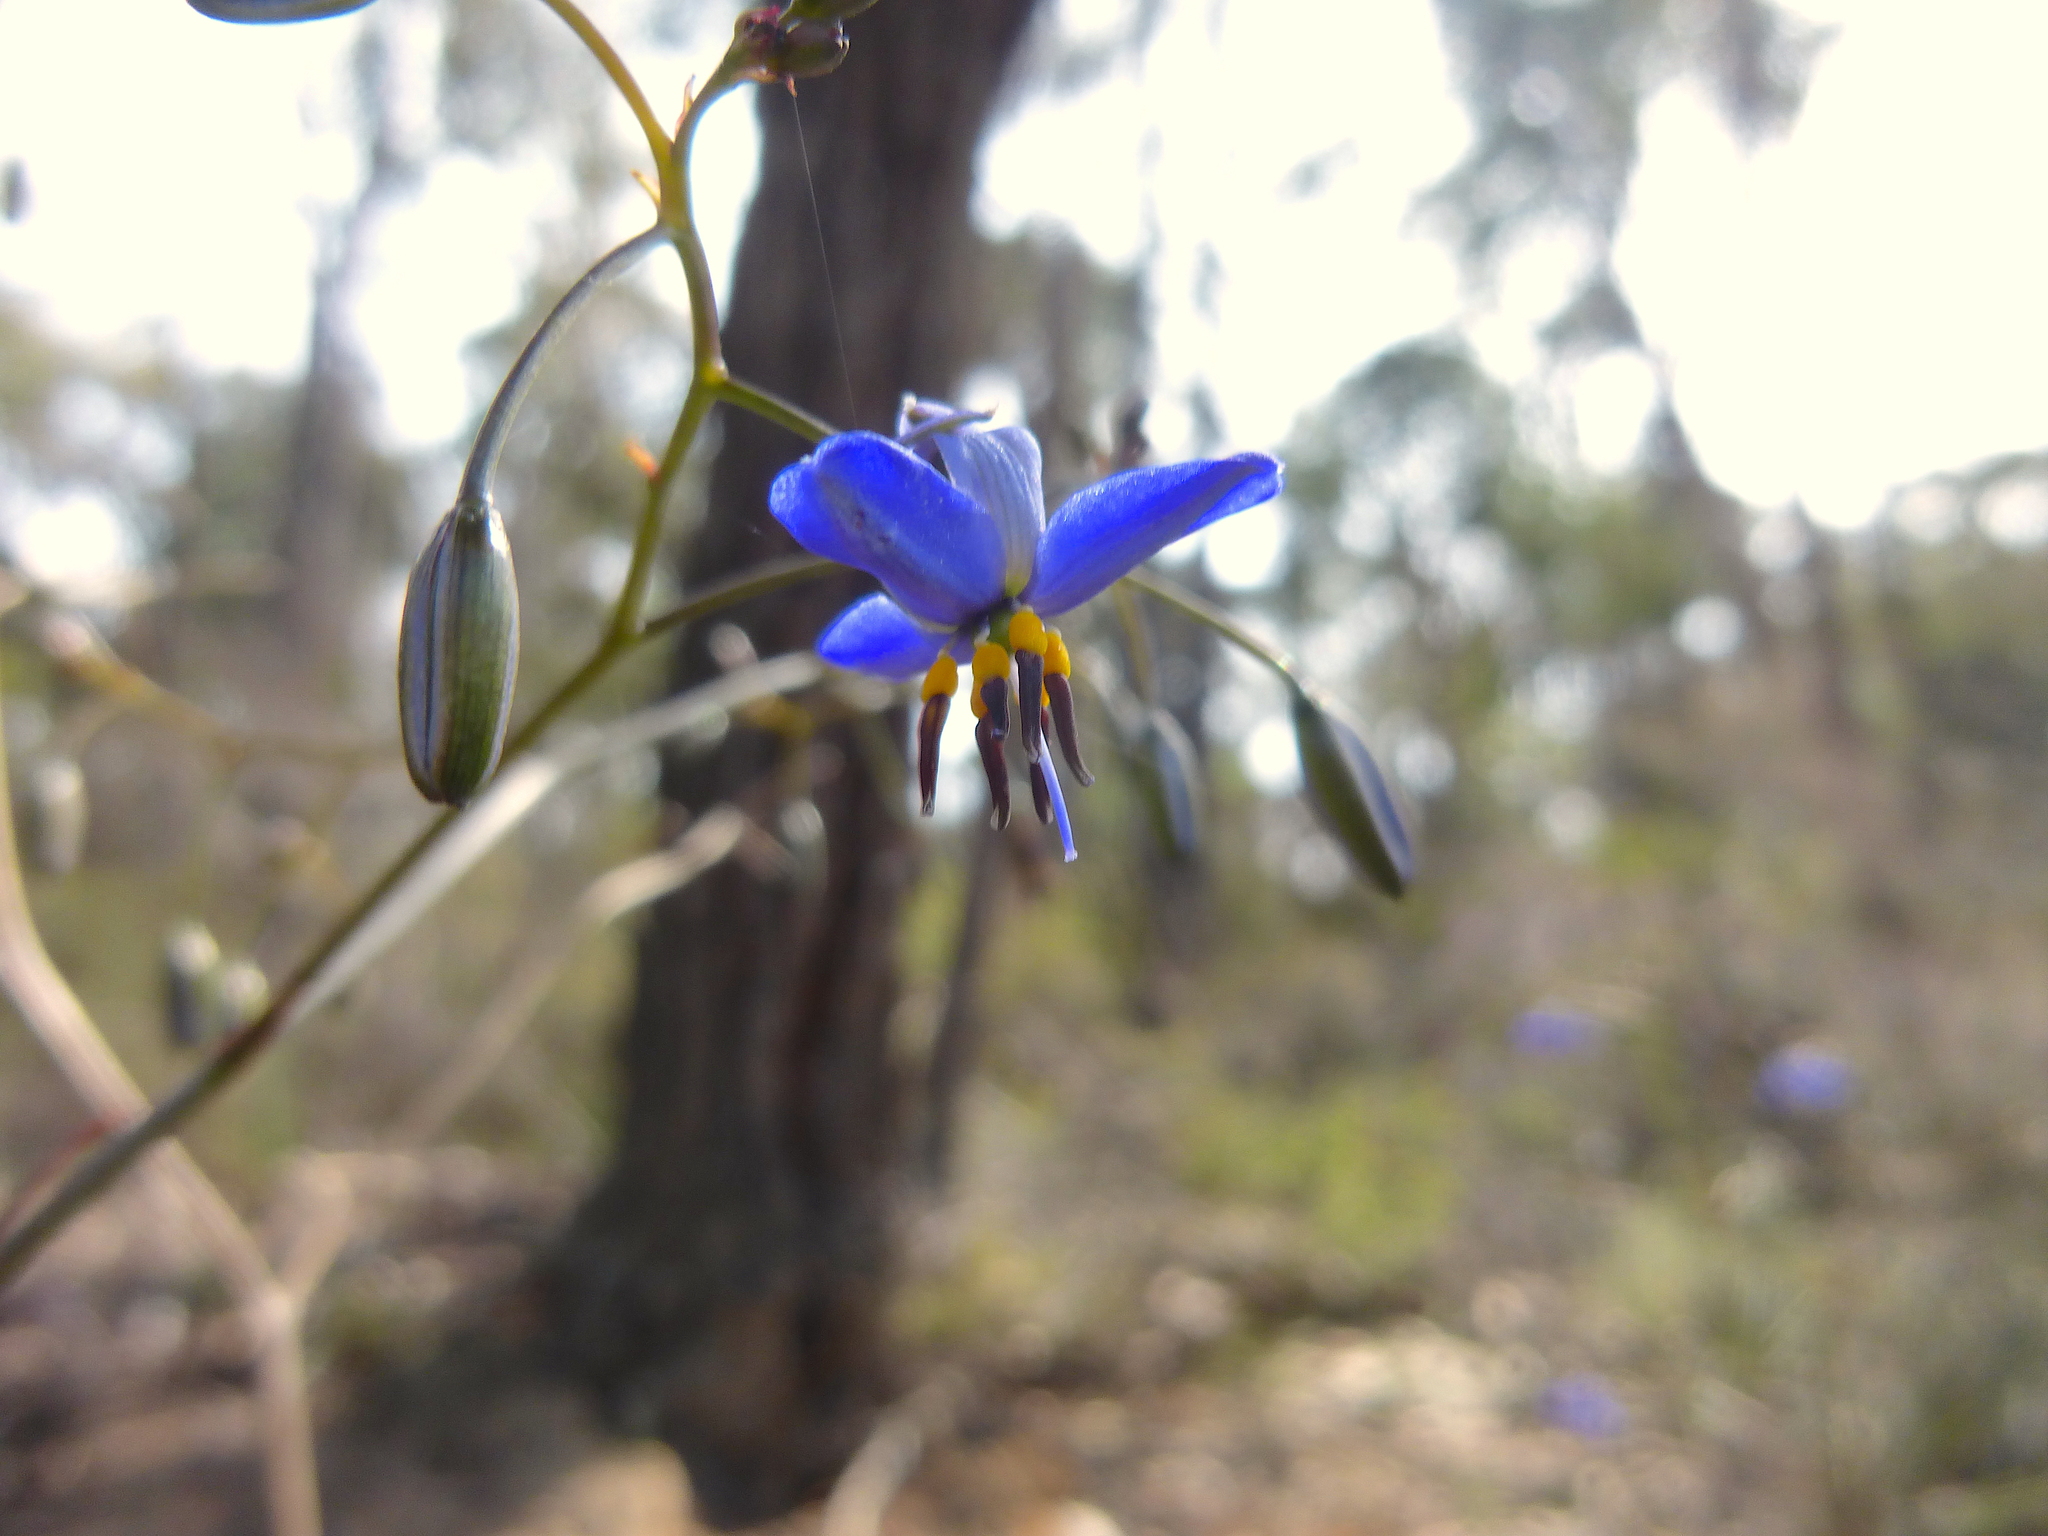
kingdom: Plantae
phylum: Tracheophyta
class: Liliopsida
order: Asparagales
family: Asphodelaceae
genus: Dianella
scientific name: Dianella revoluta
